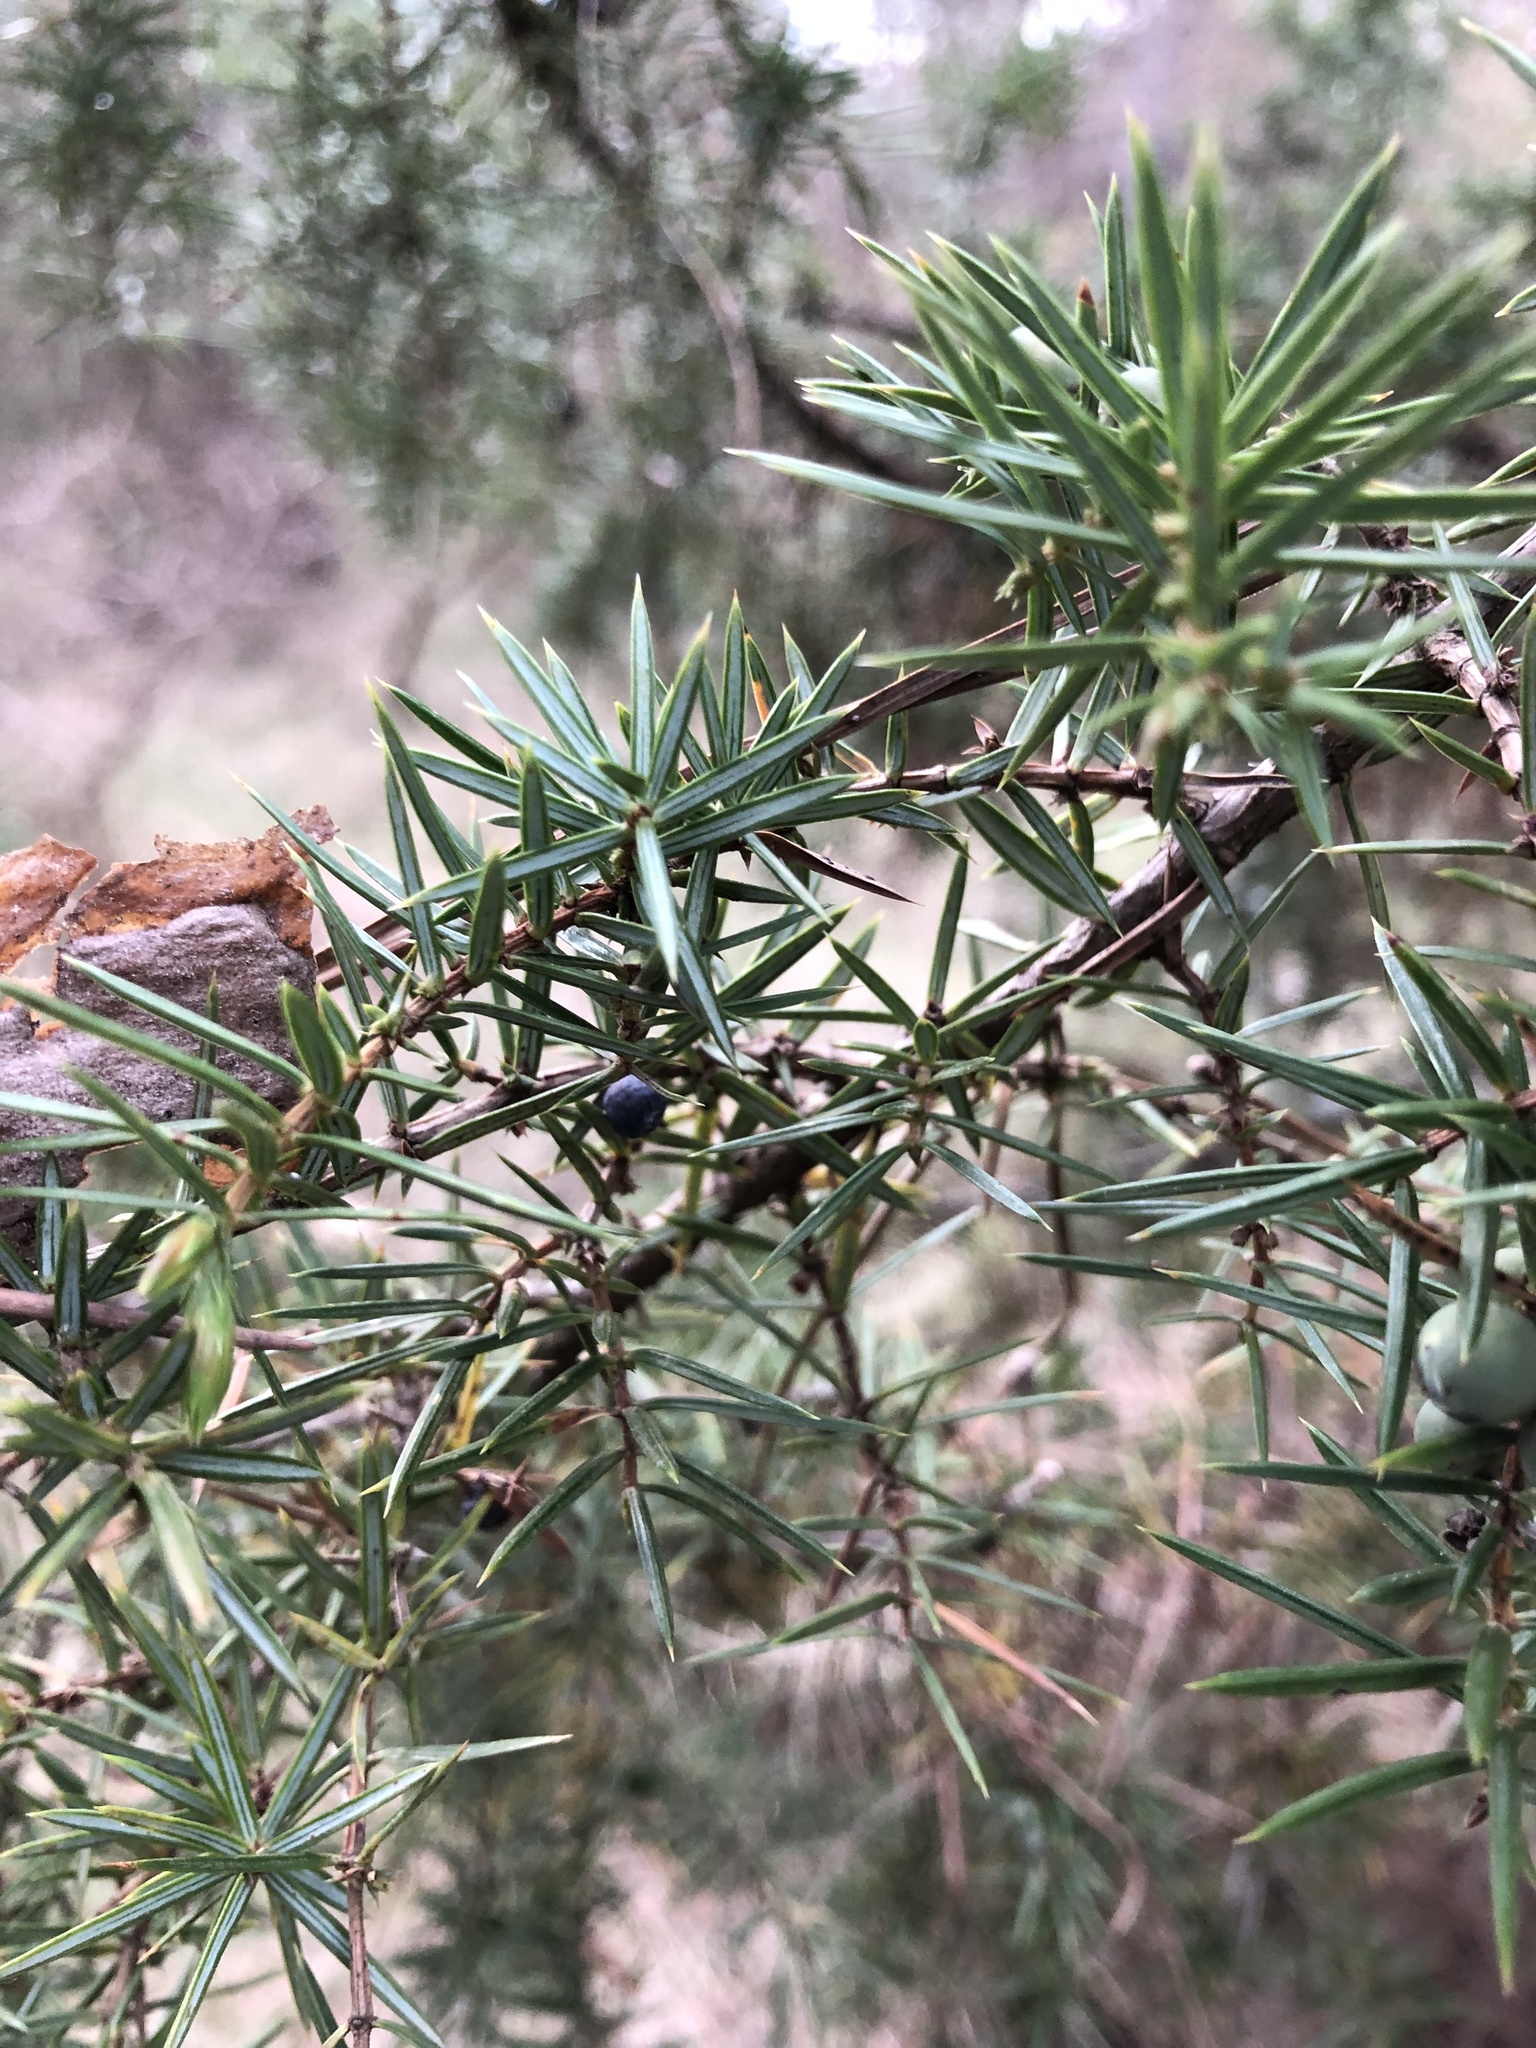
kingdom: Plantae
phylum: Tracheophyta
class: Pinopsida
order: Pinales
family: Cupressaceae
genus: Juniperus
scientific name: Juniperus communis
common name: Common juniper
